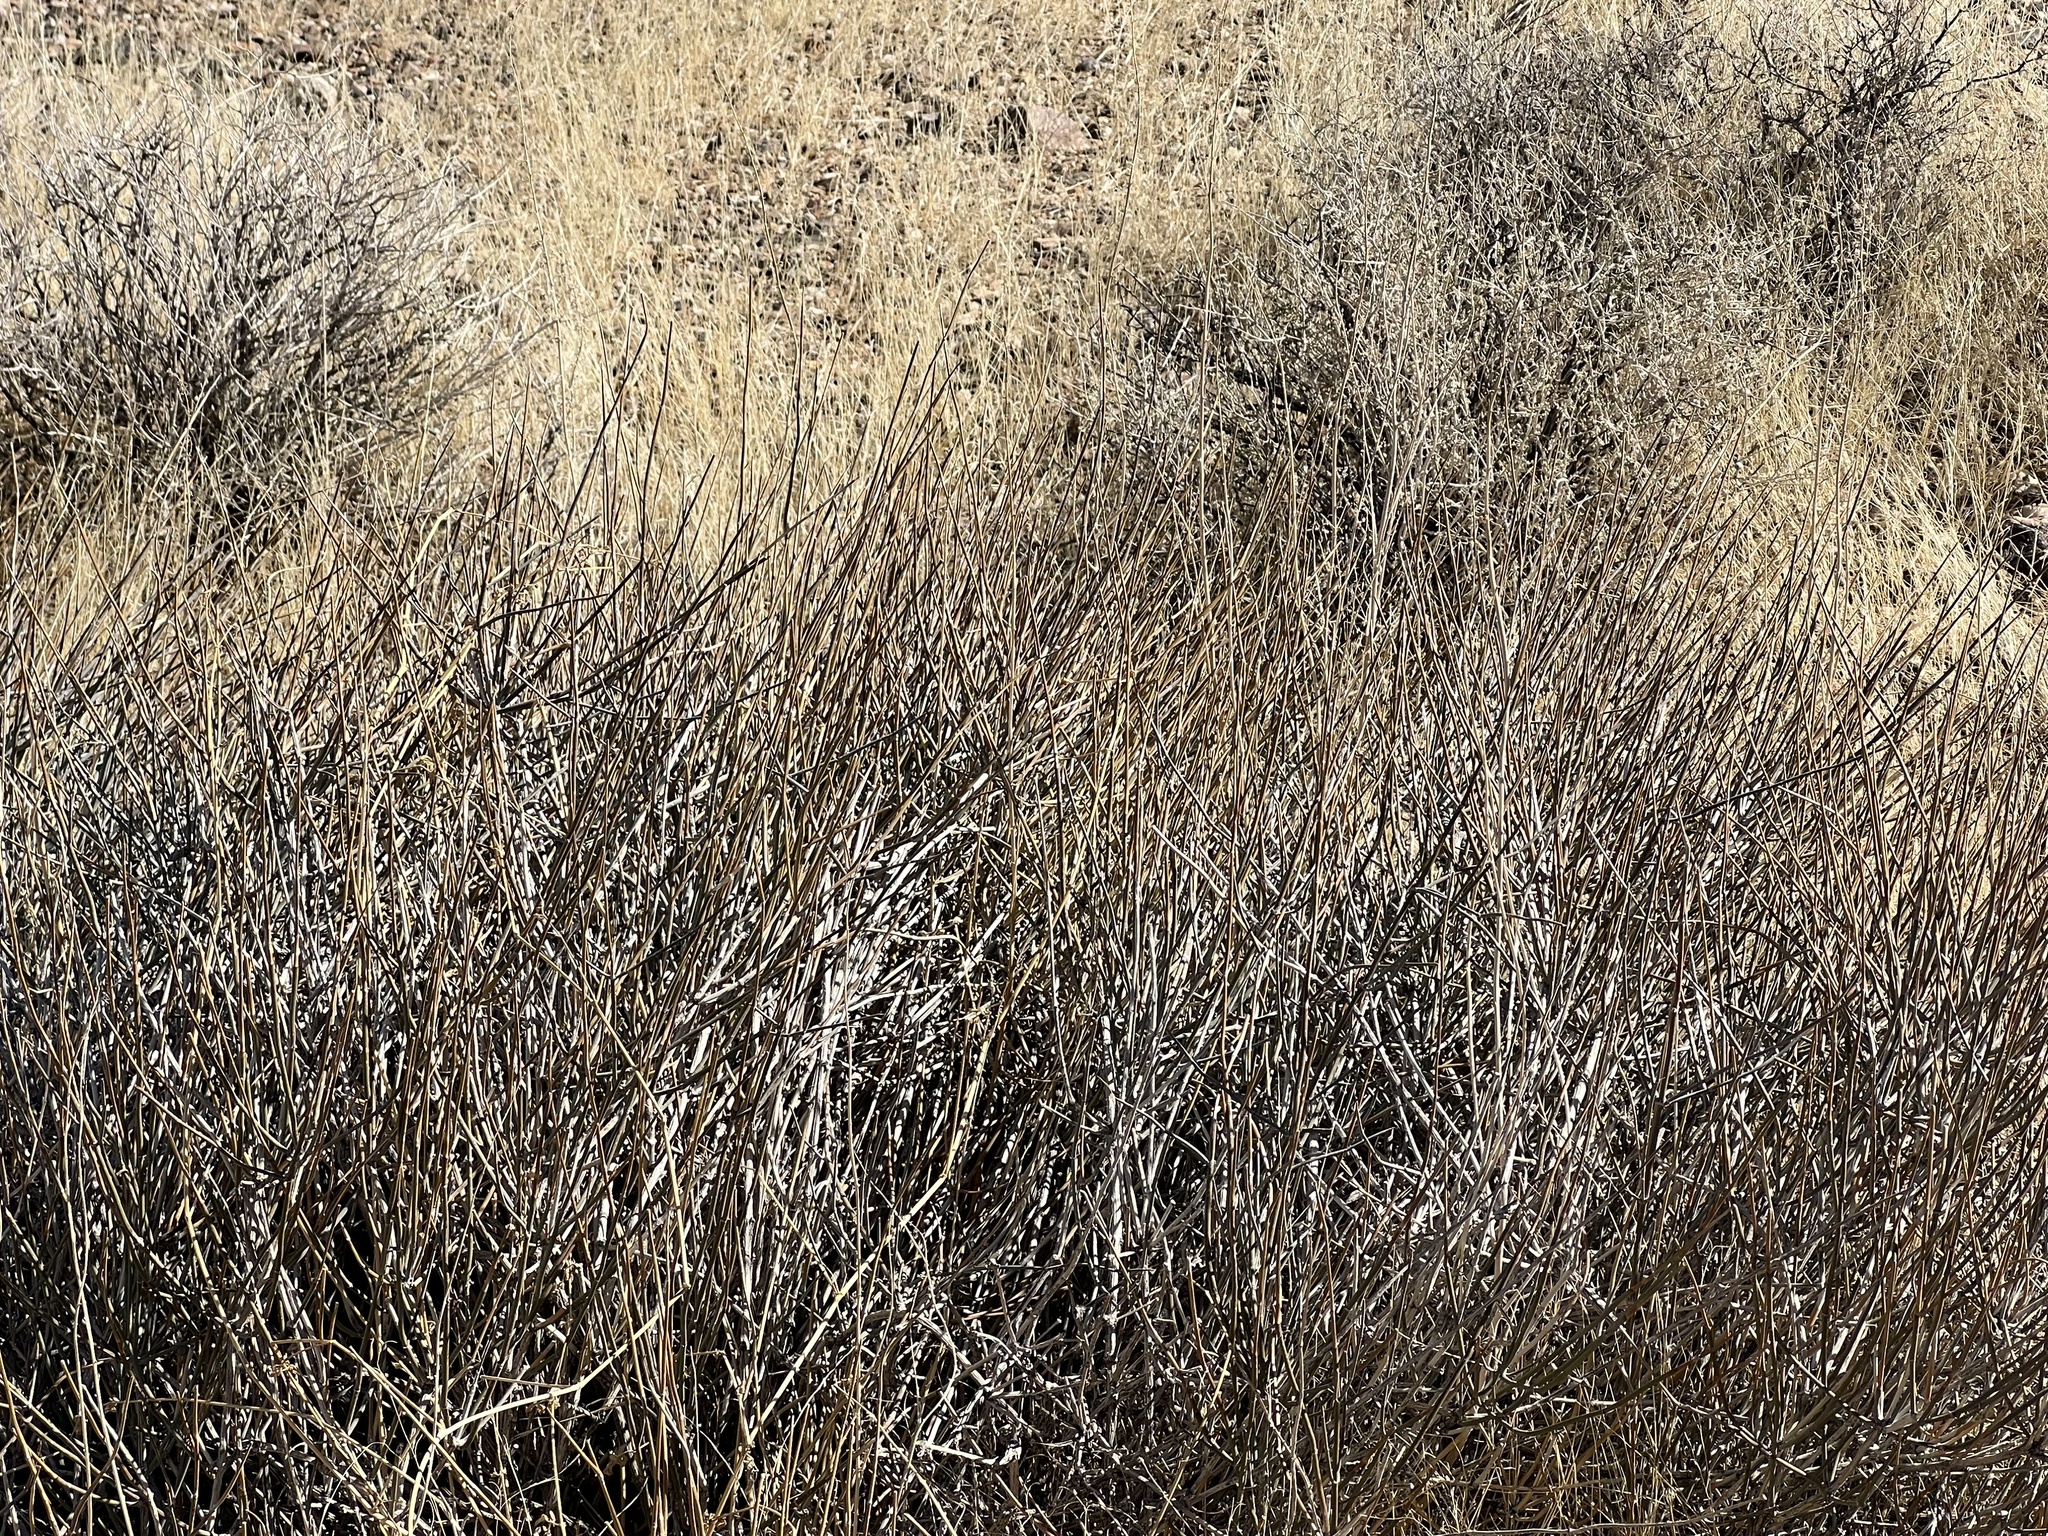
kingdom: Plantae
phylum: Tracheophyta
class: Gnetopsida
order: Ephedrales
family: Ephedraceae
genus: Ephedra
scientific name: Ephedra nevadensis
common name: Gray ephedra
